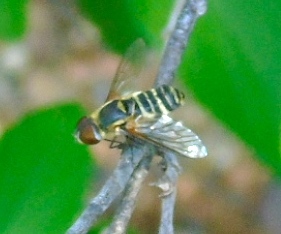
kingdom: Animalia
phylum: Arthropoda
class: Insecta
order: Diptera
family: Bombyliidae
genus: Villa
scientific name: Villa
